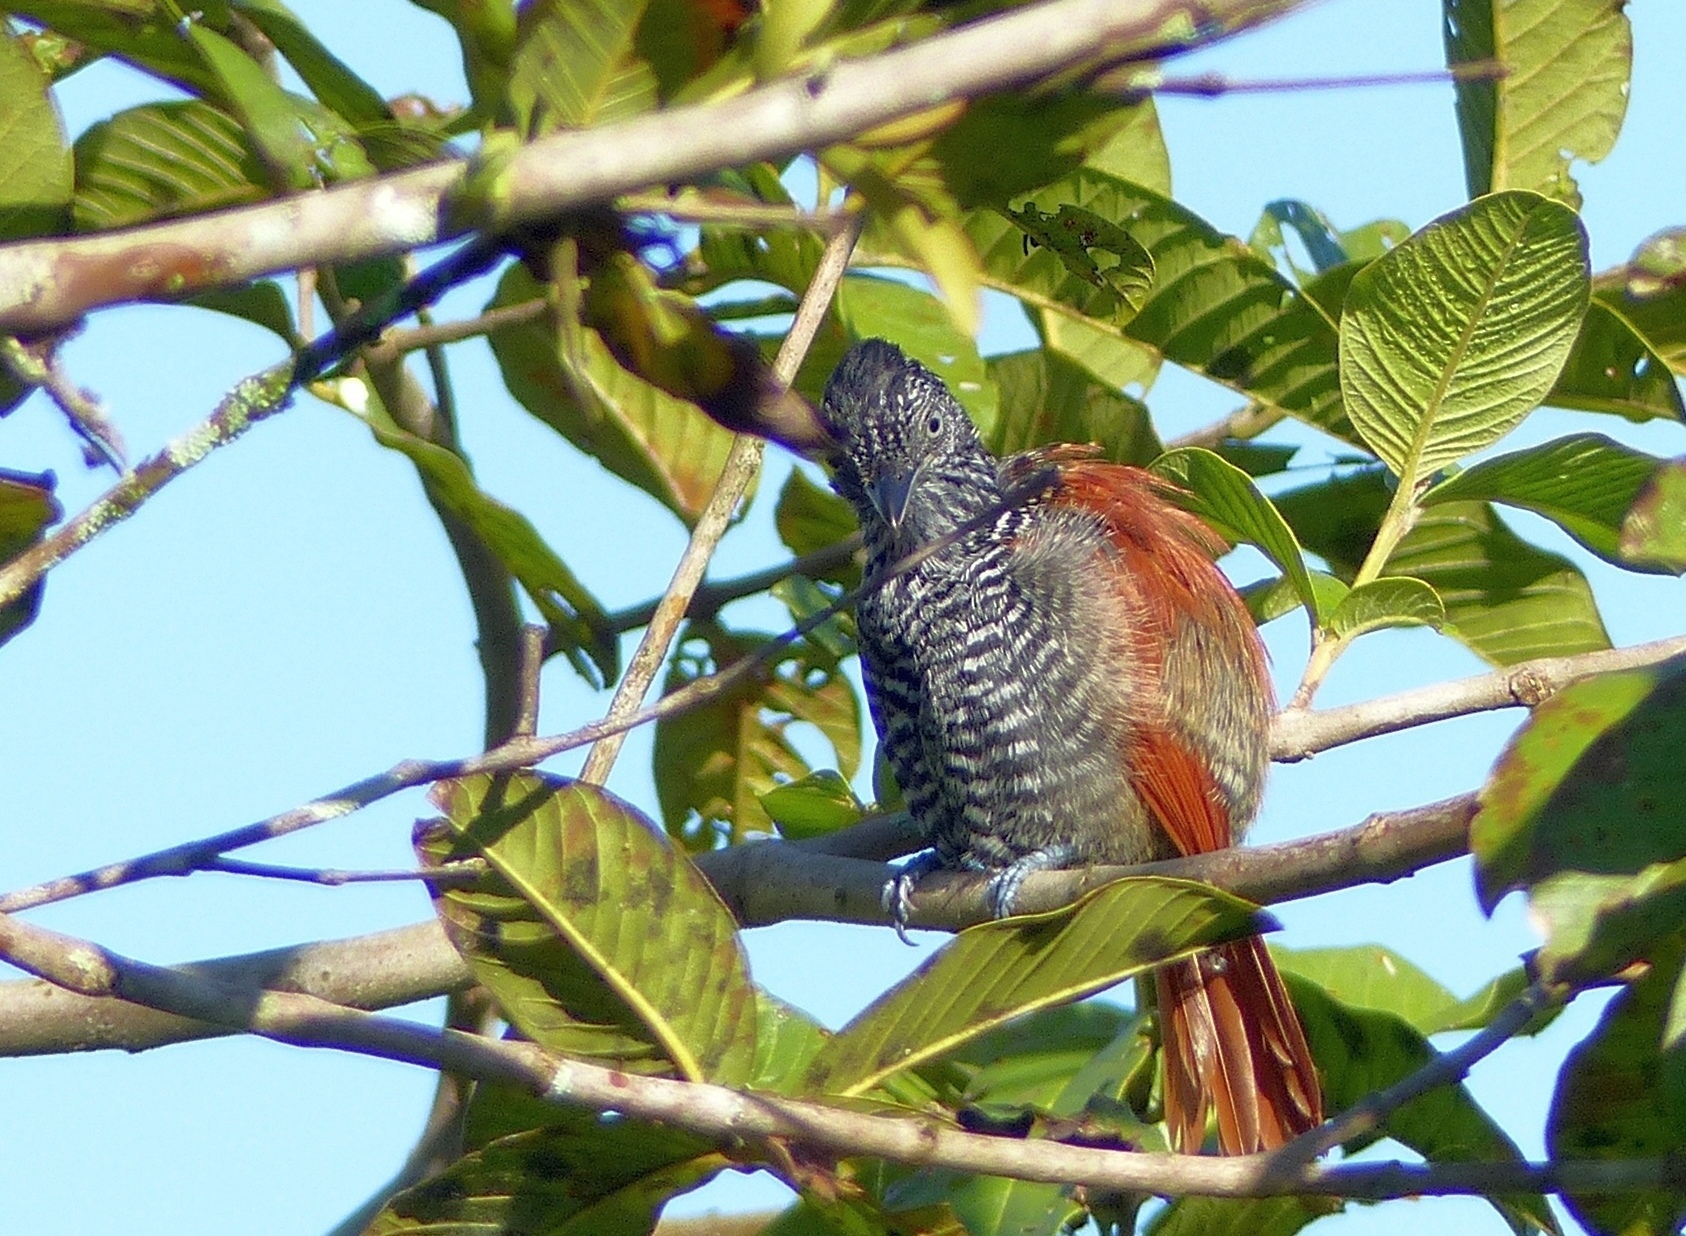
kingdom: Animalia
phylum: Chordata
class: Aves
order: Passeriformes
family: Thamnophilidae
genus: Thamnophilus
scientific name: Thamnophilus palliatus
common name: Chestnut-backed antshrike
